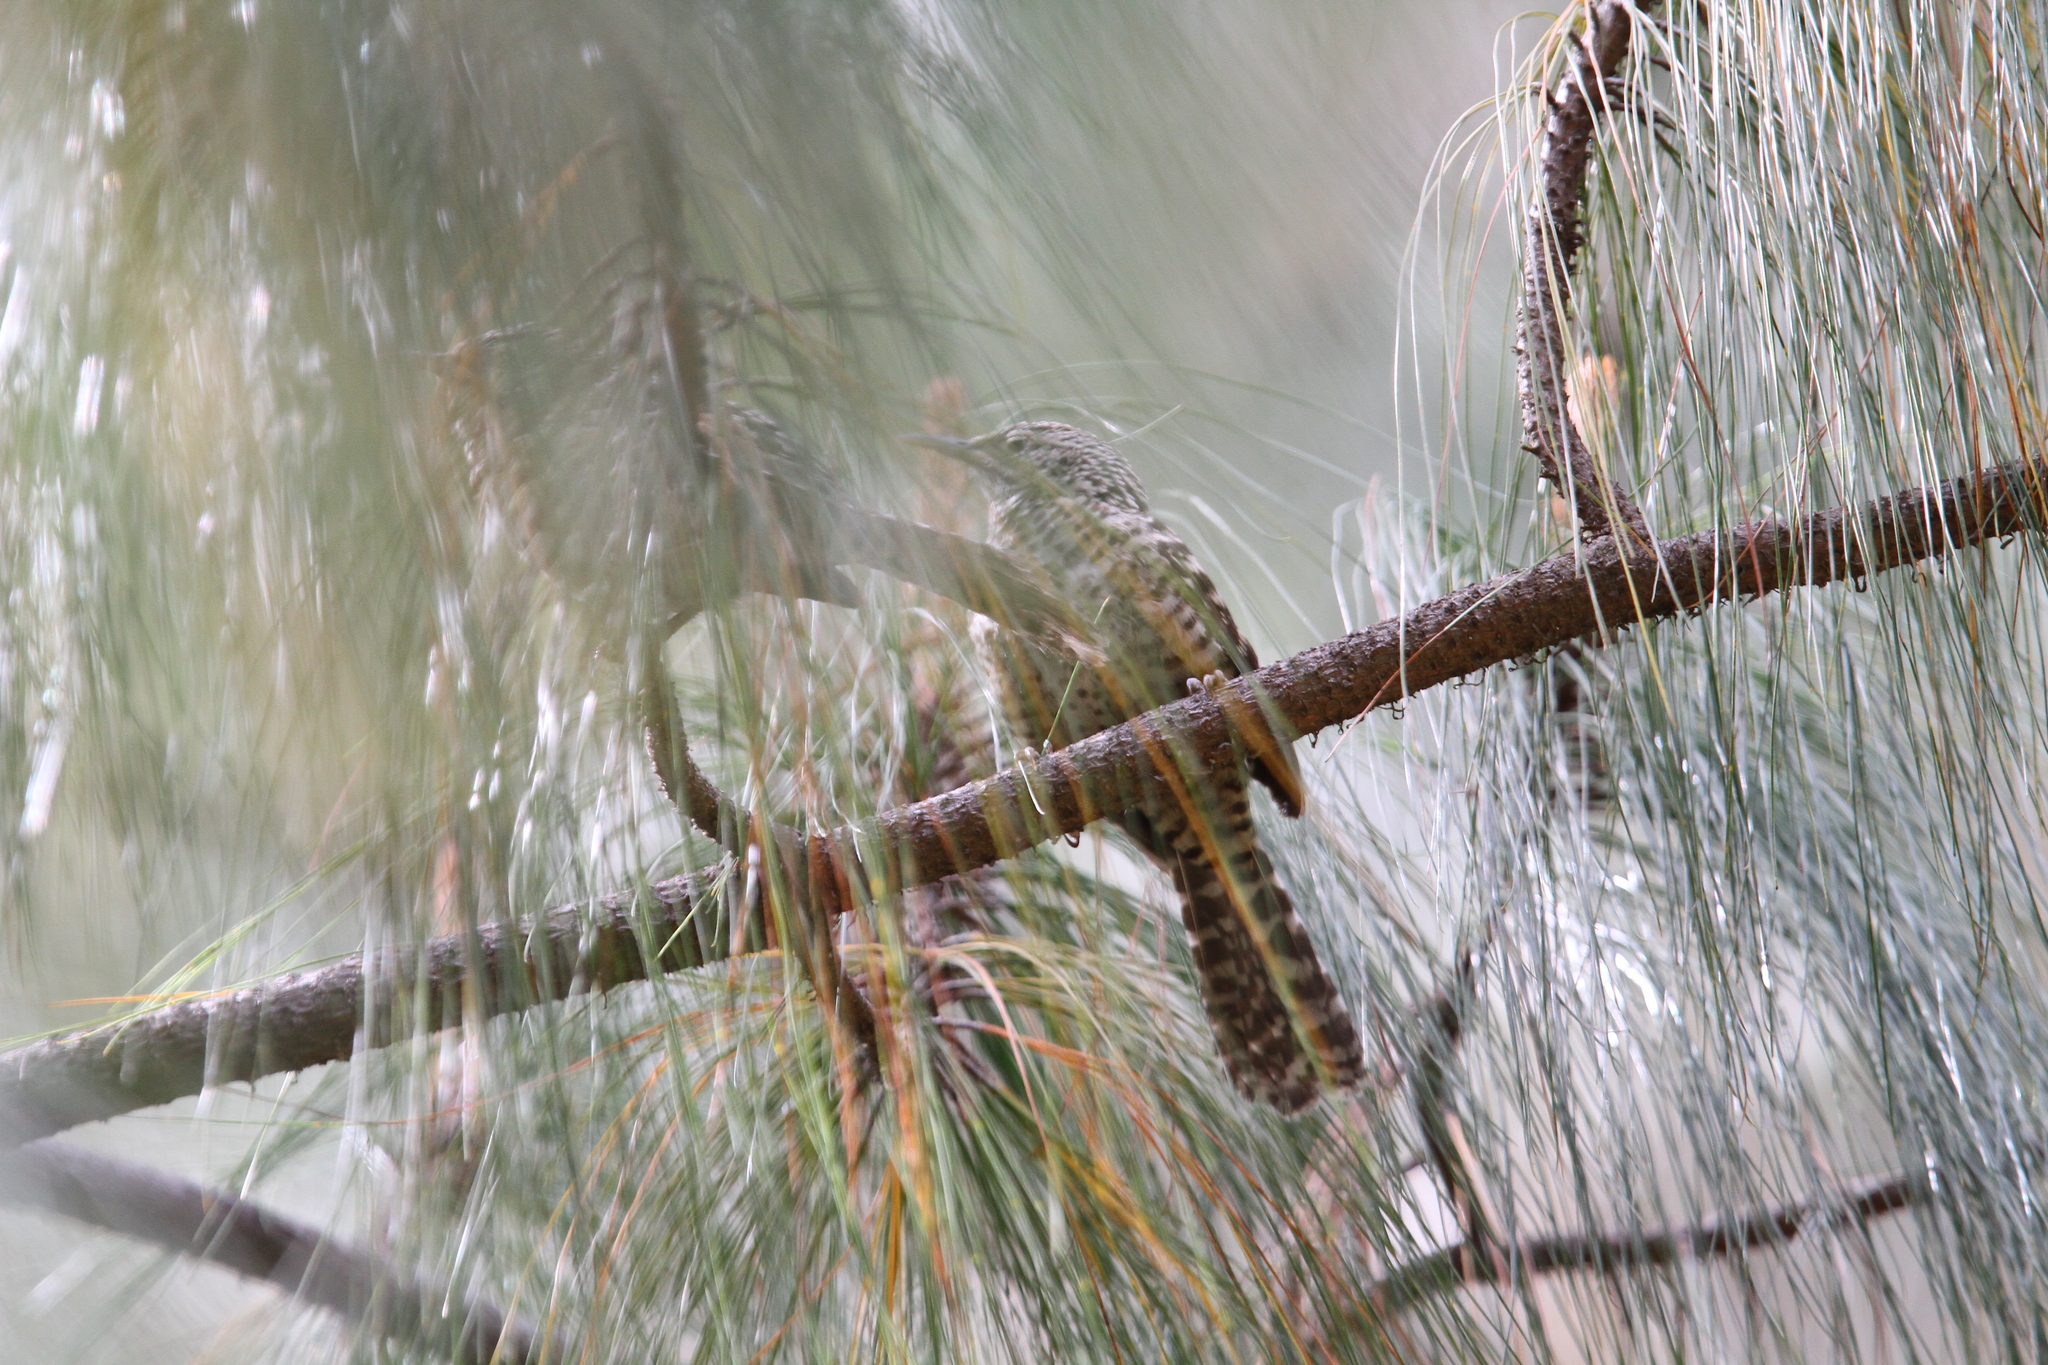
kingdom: Animalia
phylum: Chordata
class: Aves
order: Passeriformes
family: Troglodytidae
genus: Campylorhynchus
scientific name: Campylorhynchus megalopterus
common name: Gray-barred wren
